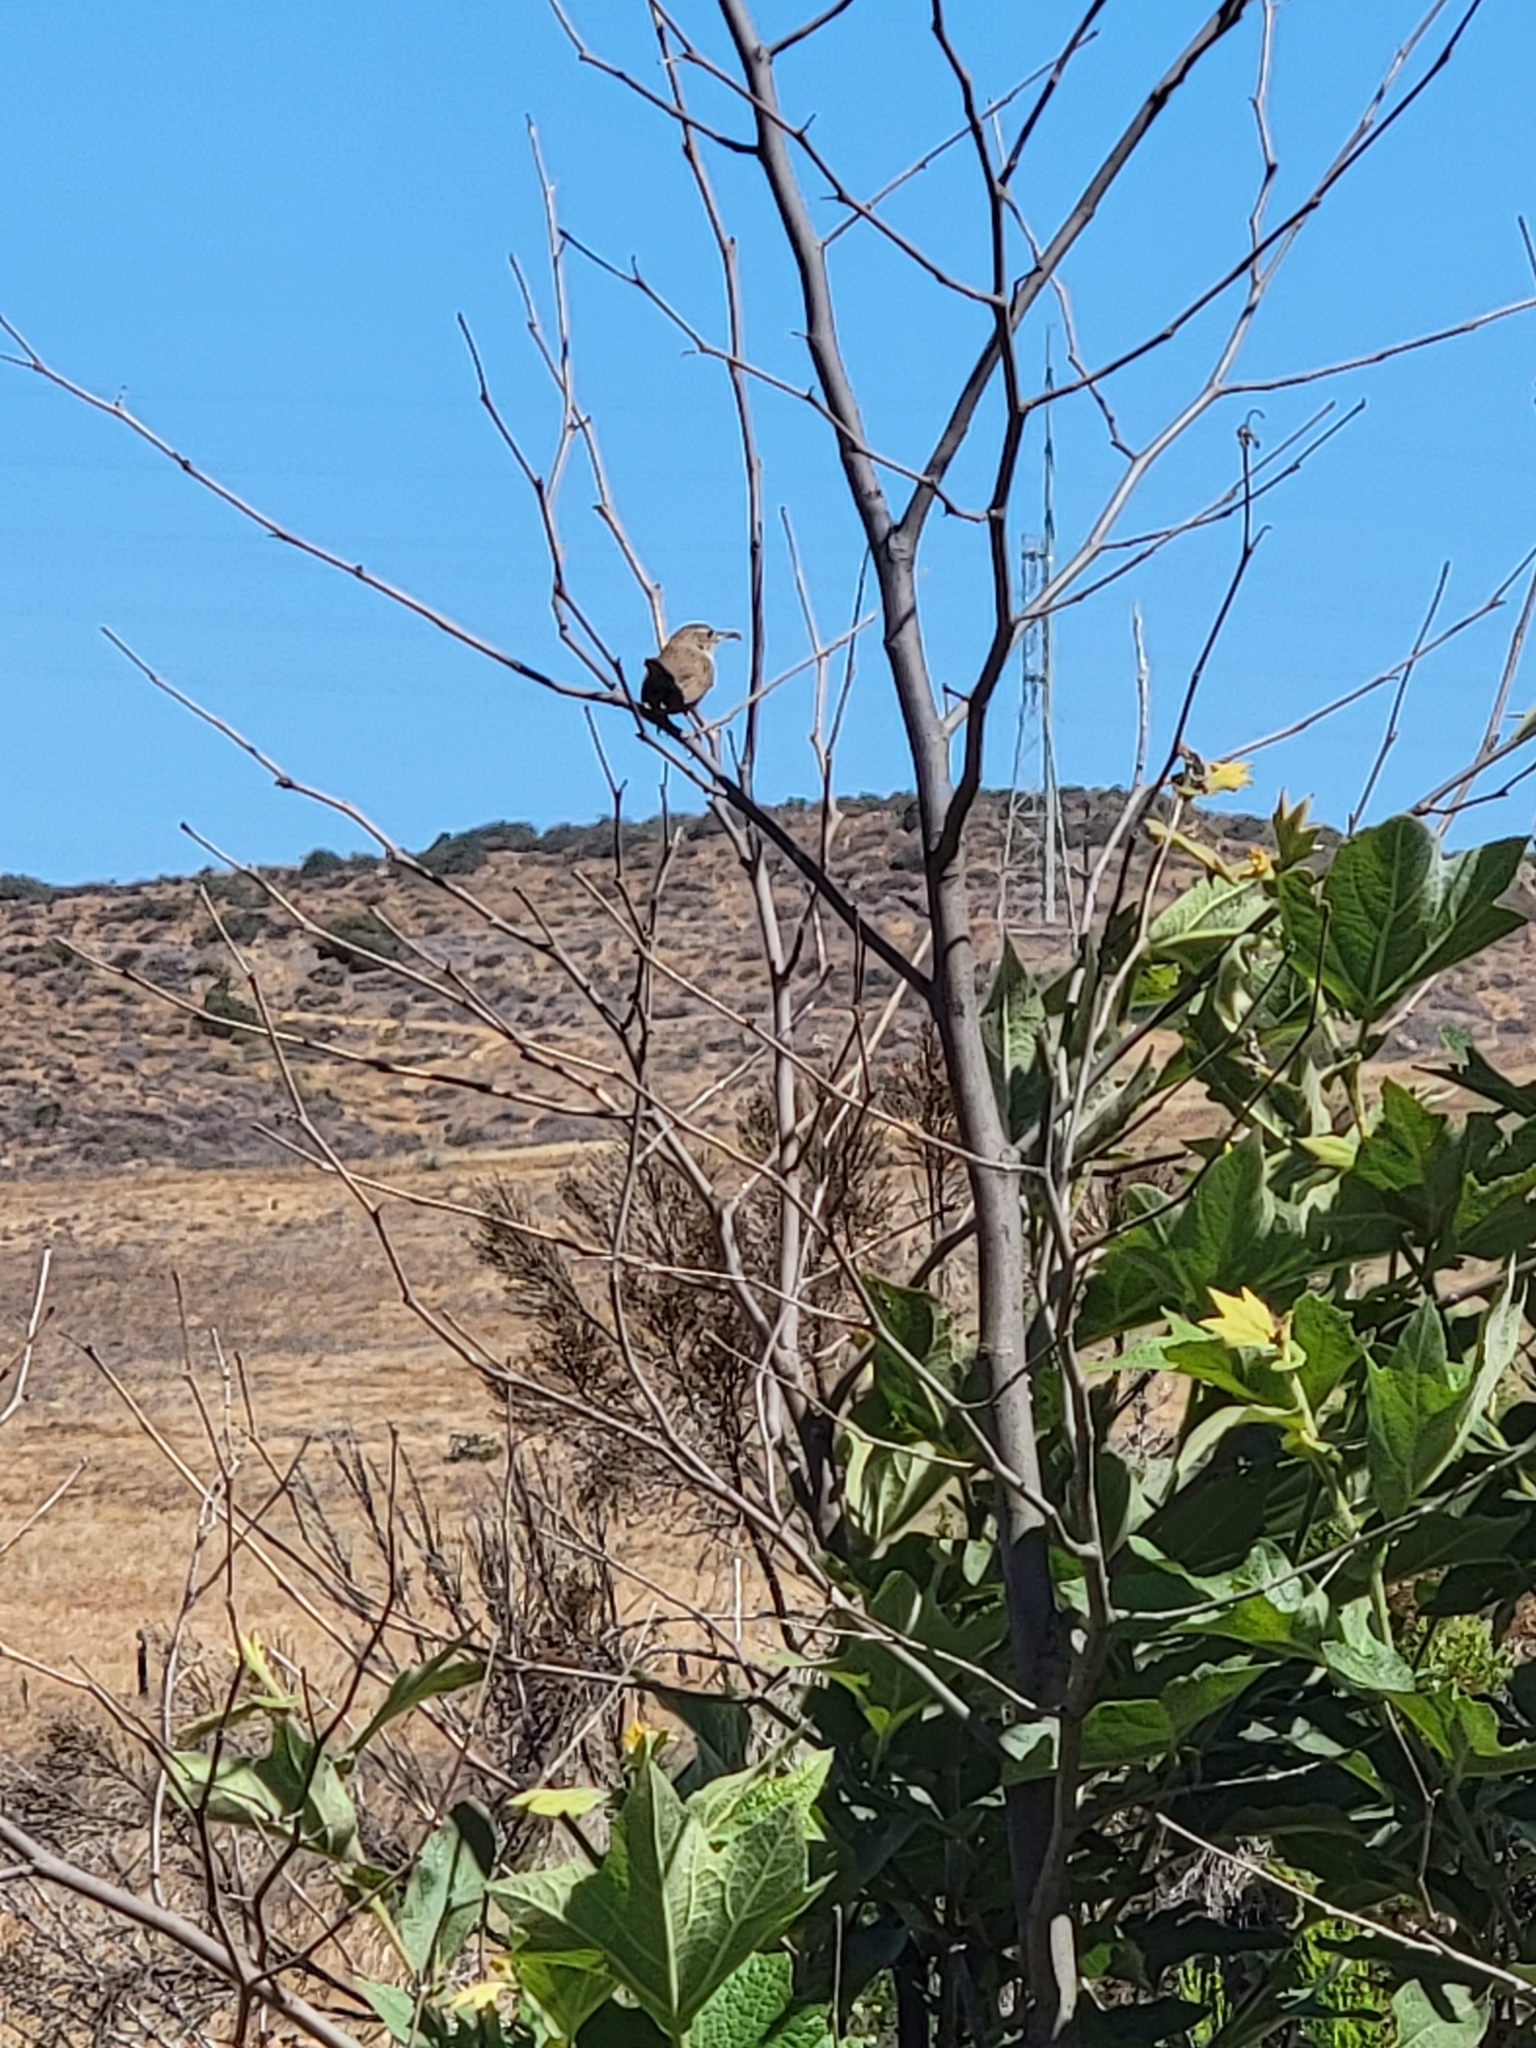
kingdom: Animalia
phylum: Chordata
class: Aves
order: Passeriformes
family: Troglodytidae
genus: Troglodytes
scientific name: Troglodytes aedon
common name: House wren
